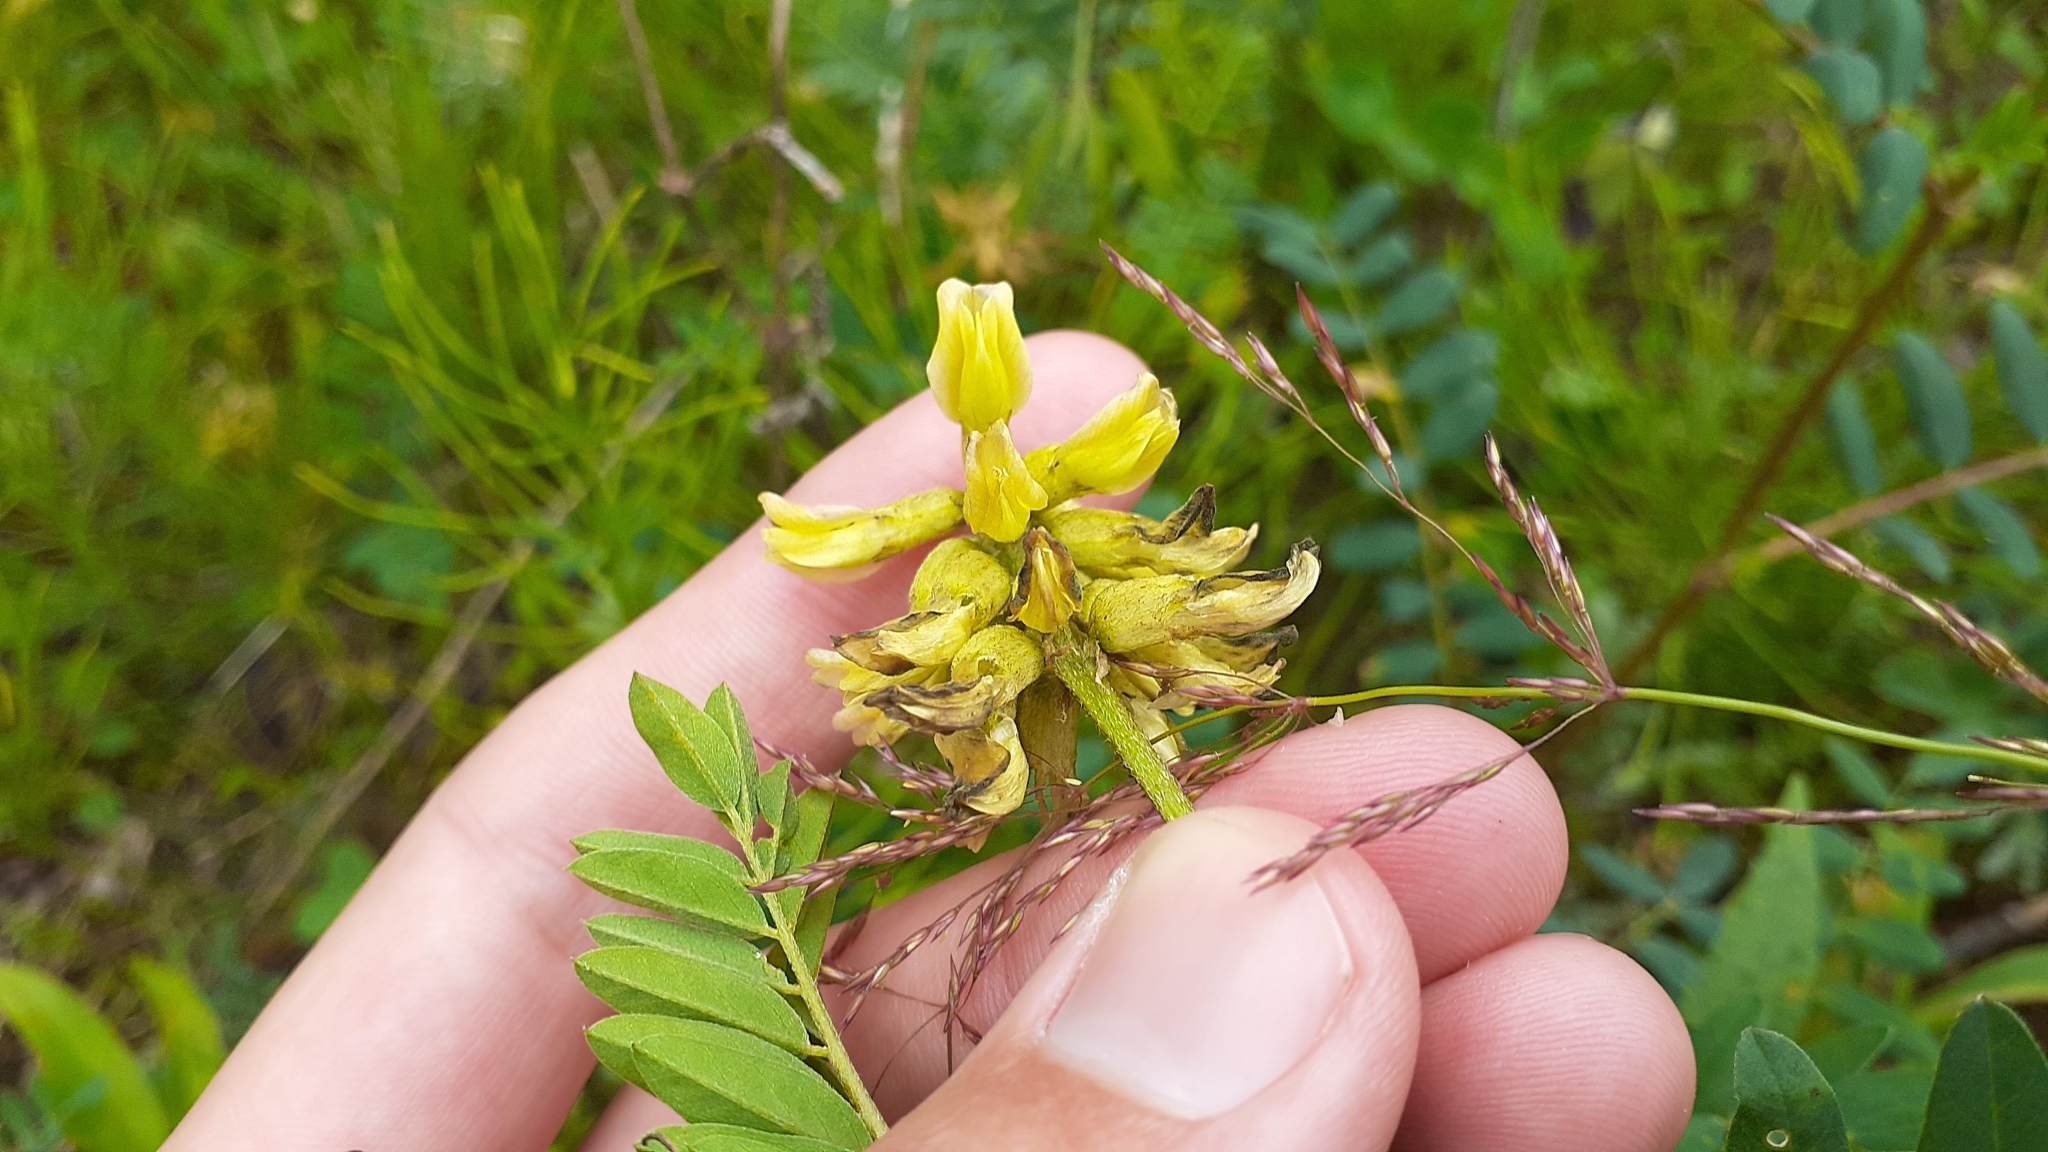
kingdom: Plantae
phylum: Tracheophyta
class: Magnoliopsida
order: Fabales
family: Fabaceae
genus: Astragalus
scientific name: Astragalus canadensis
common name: Canada milk-vetch
